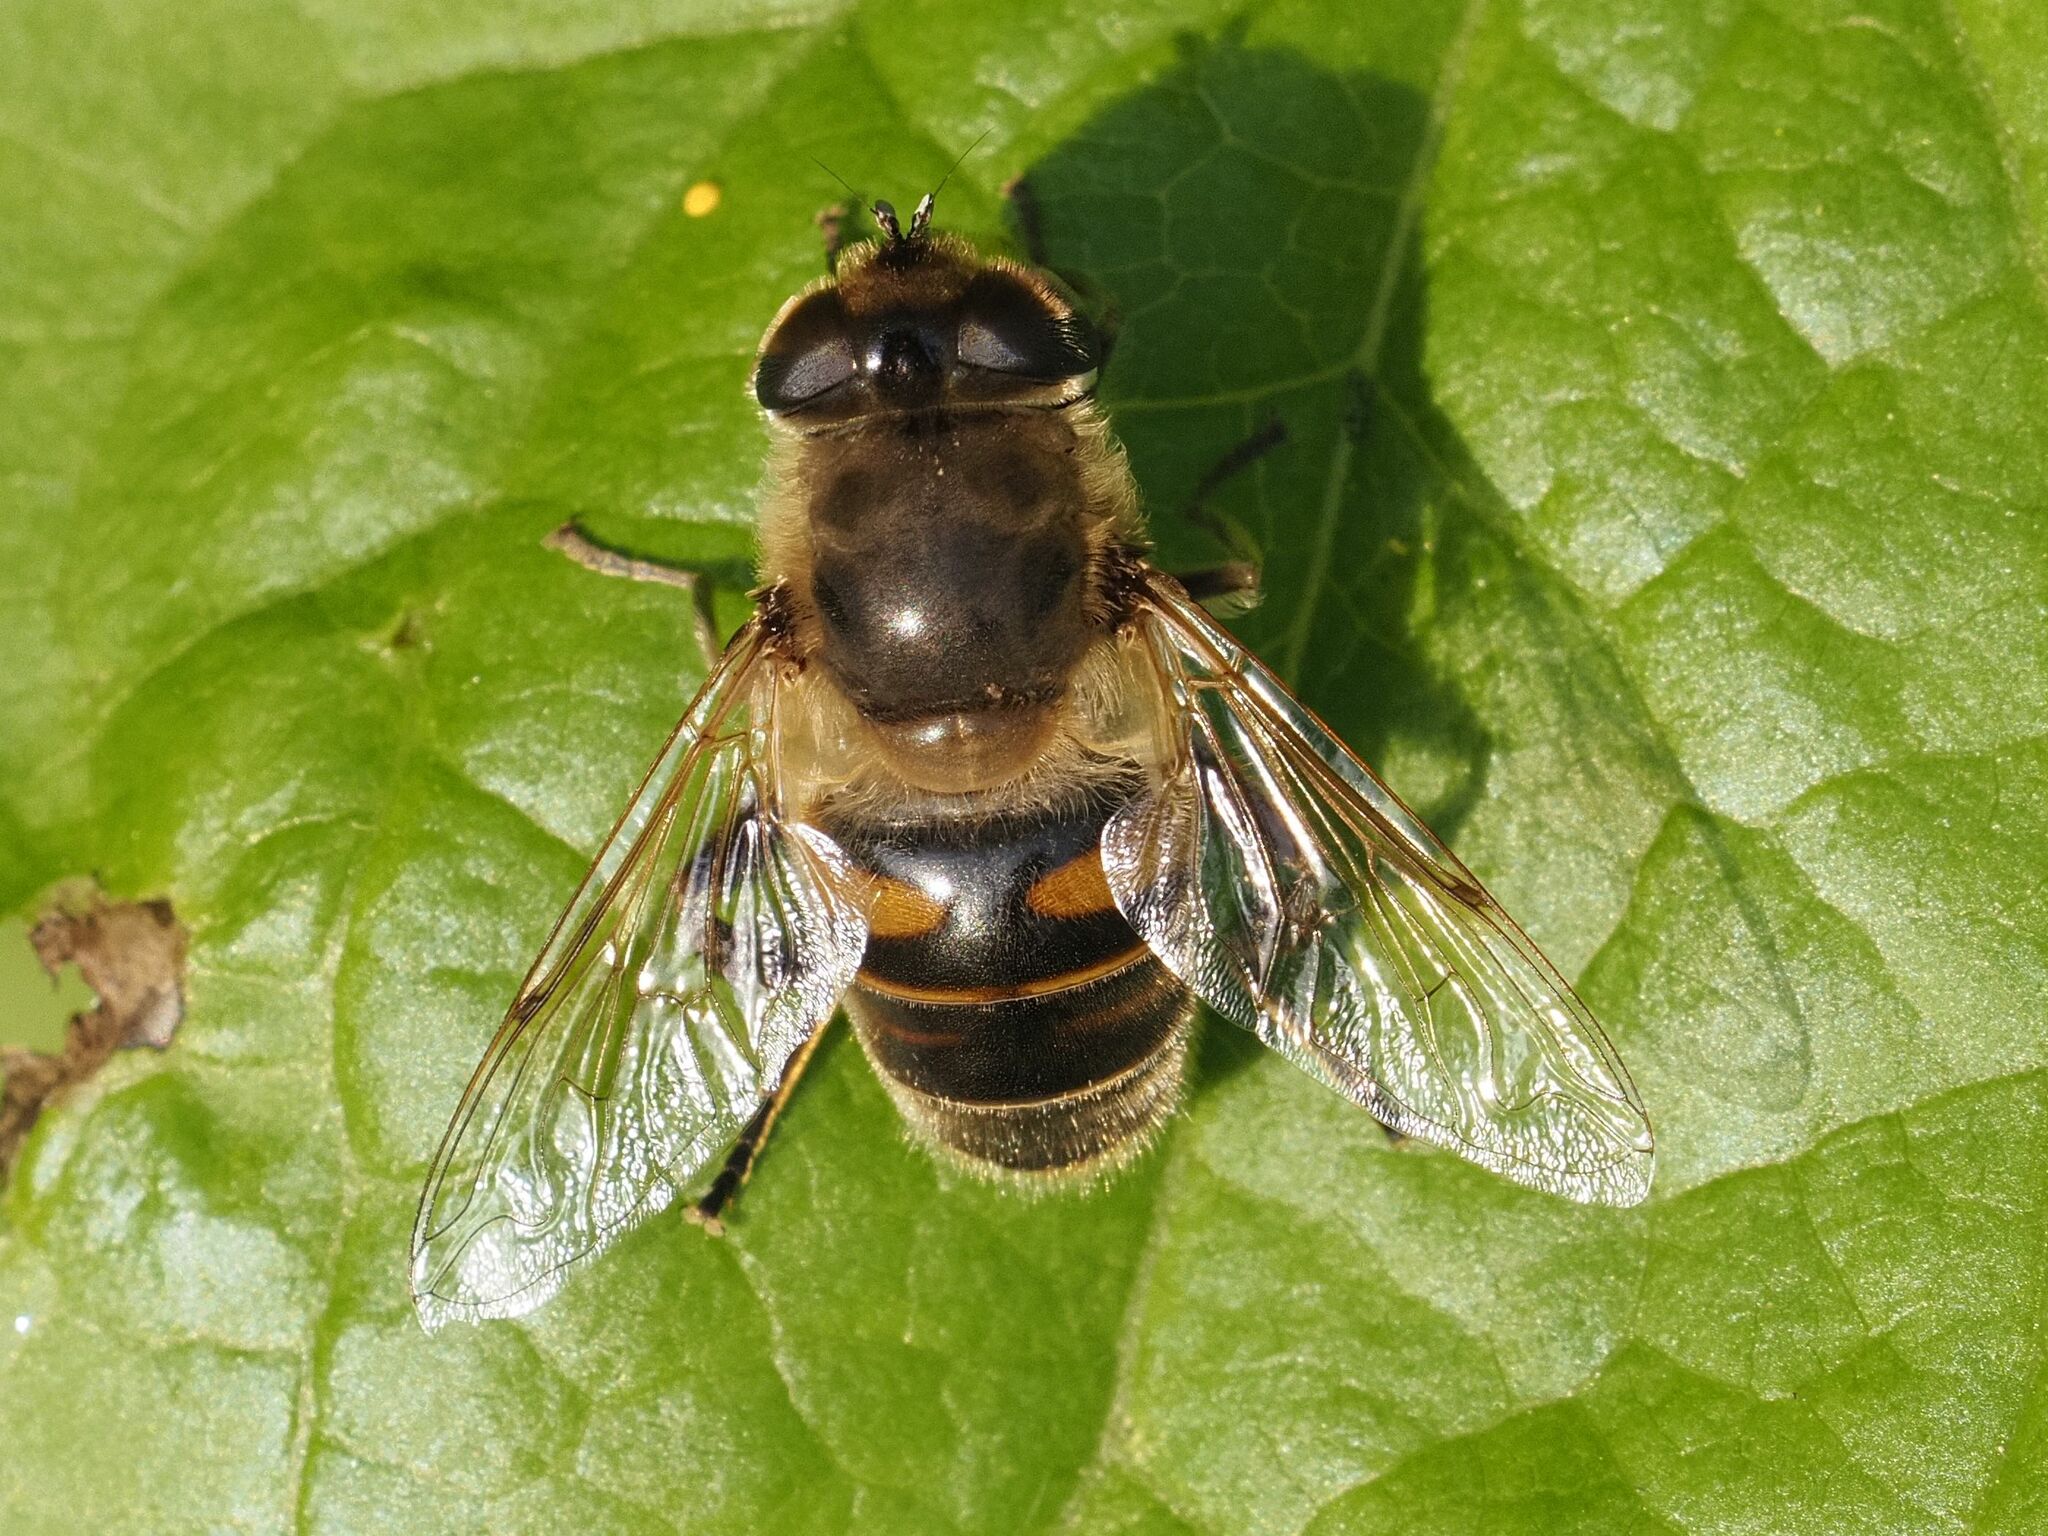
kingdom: Animalia
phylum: Arthropoda
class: Insecta
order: Diptera
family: Syrphidae
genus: Eristalis
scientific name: Eristalis tenax
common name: Drone fly
